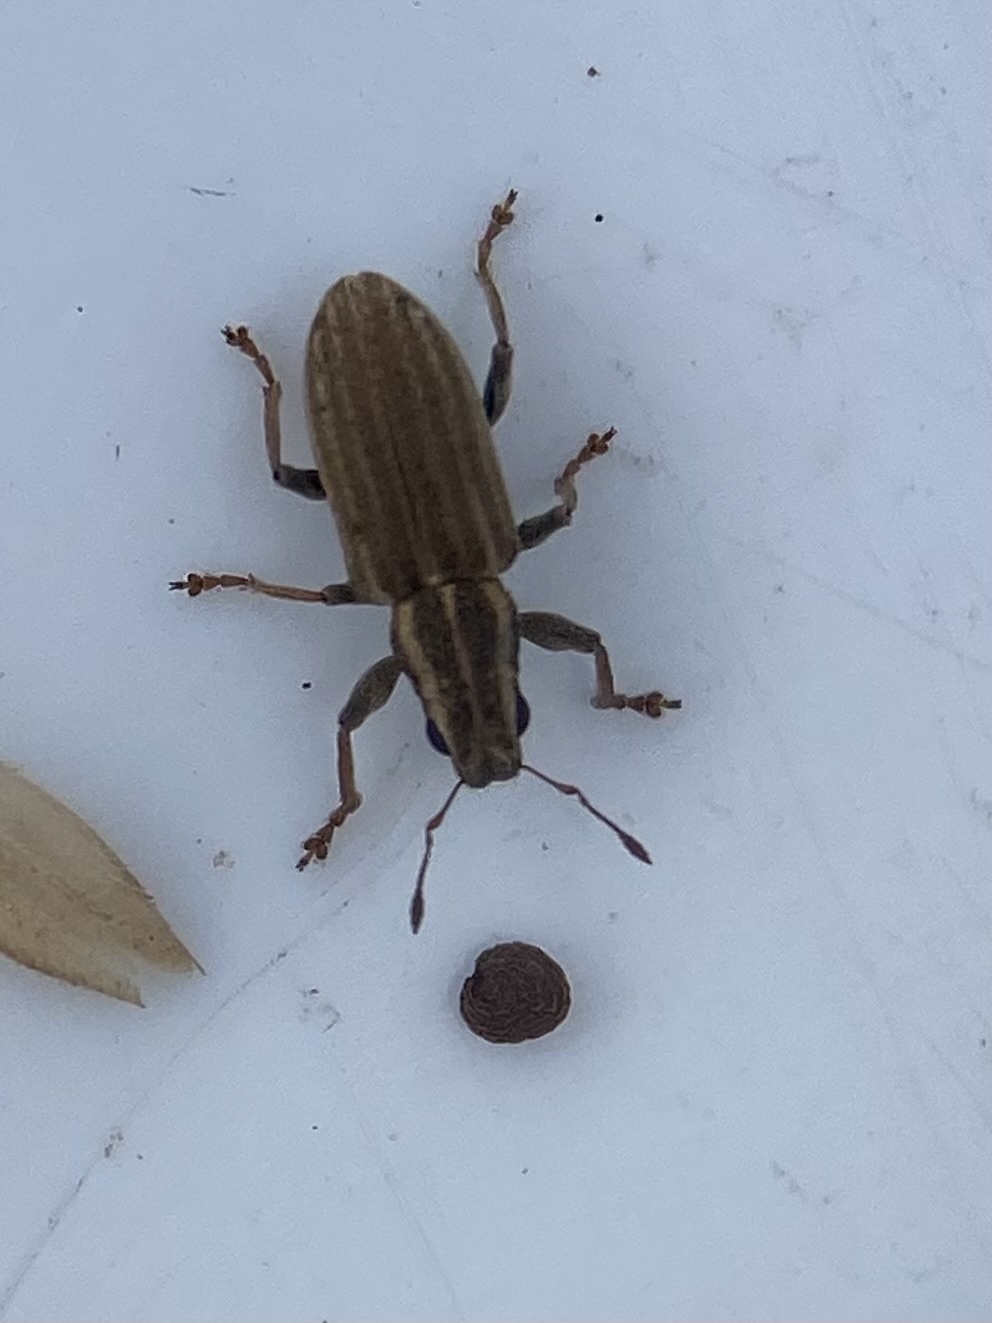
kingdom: Animalia
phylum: Arthropoda
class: Insecta
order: Coleoptera
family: Curculionidae
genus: Sitona
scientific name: Sitona lineatus
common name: Weevil
